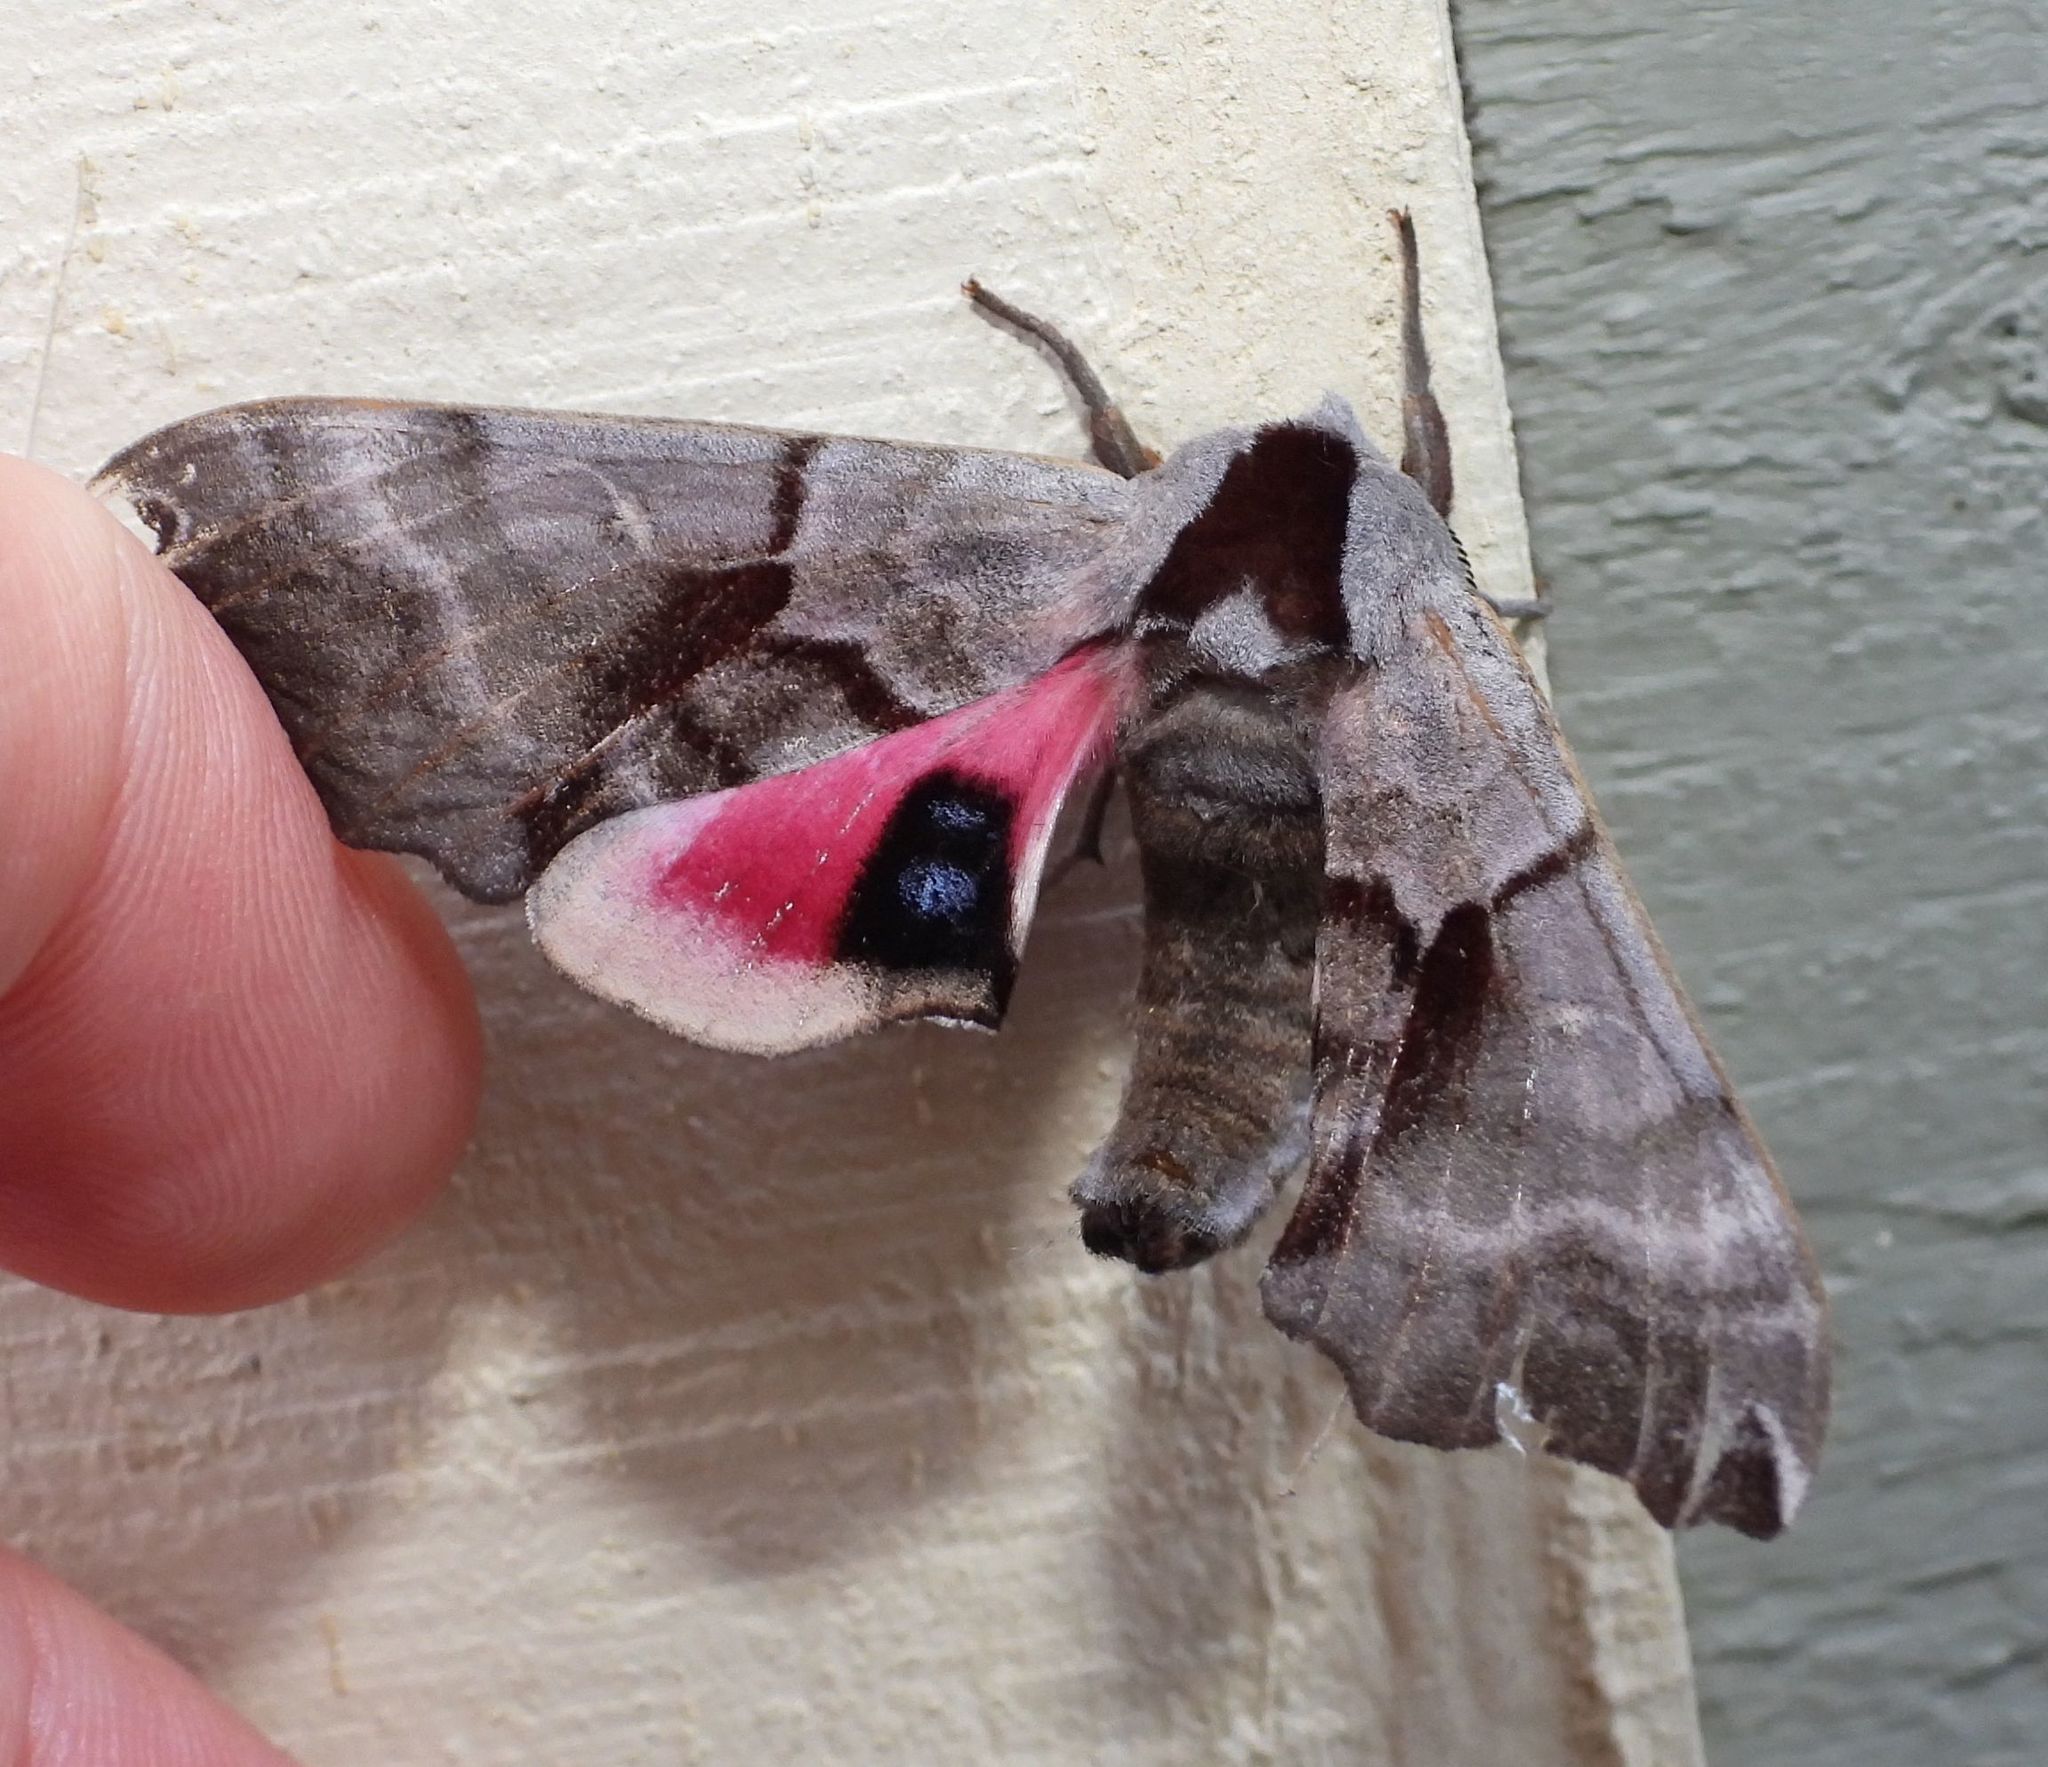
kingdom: Animalia
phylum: Arthropoda
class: Insecta
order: Lepidoptera
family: Sphingidae
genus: Smerinthus
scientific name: Smerinthus jamaicensis
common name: Twin spotted sphinx
